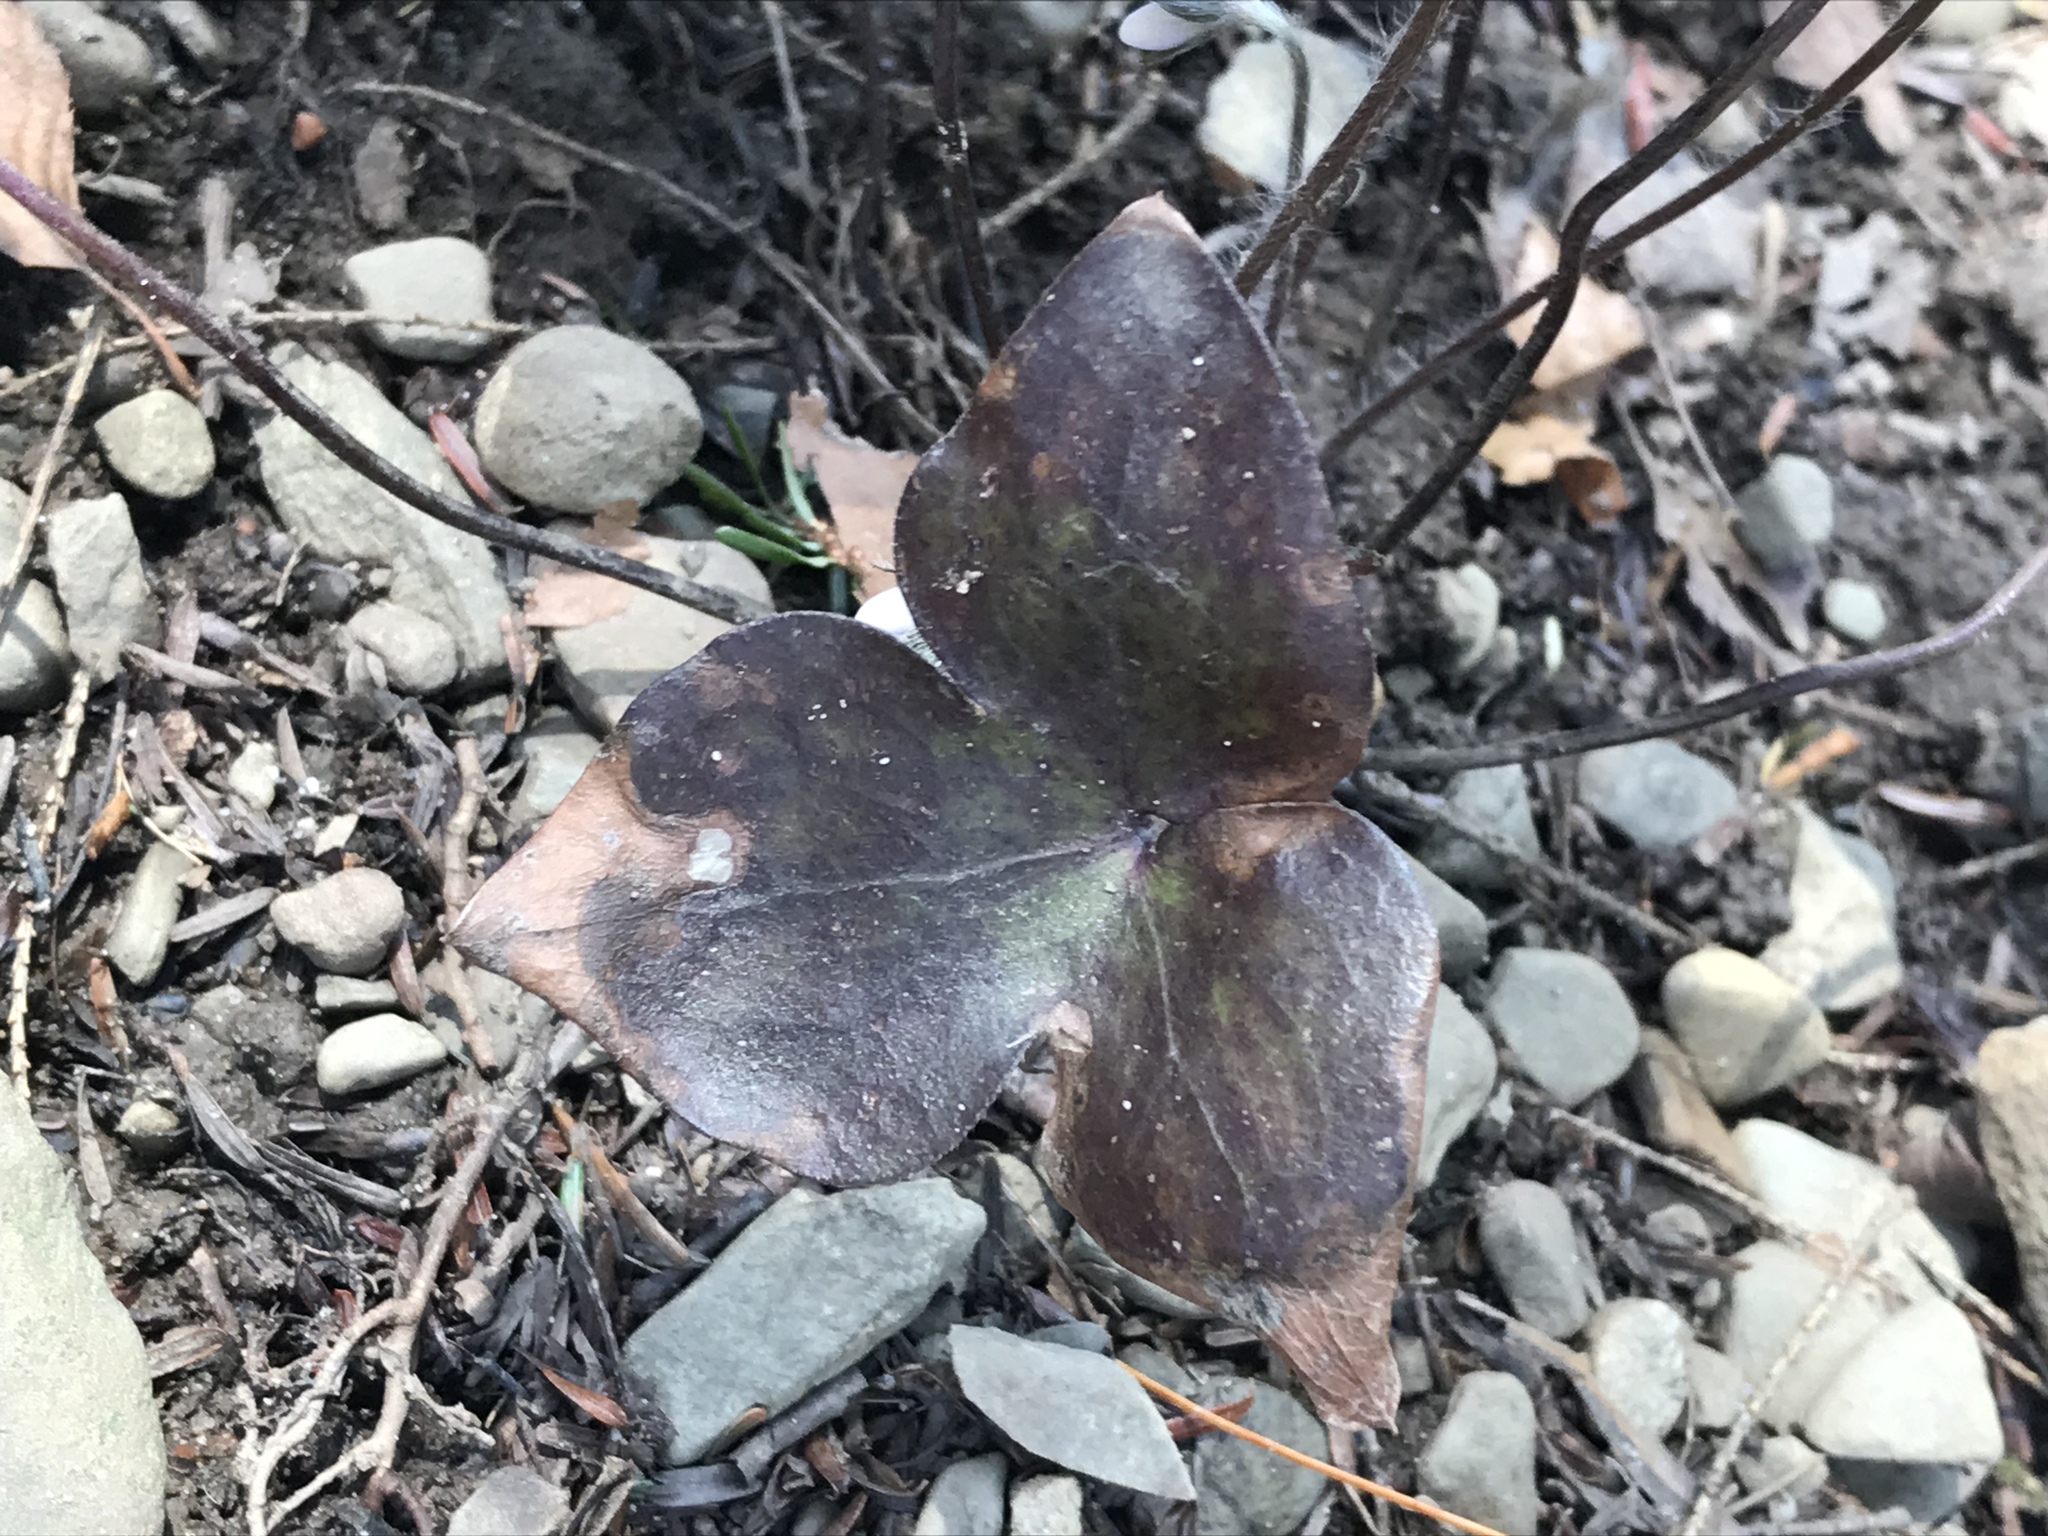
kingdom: Plantae
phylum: Tracheophyta
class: Magnoliopsida
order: Ranunculales
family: Ranunculaceae
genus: Hepatica
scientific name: Hepatica acutiloba
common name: Sharp-lobed hepatica
